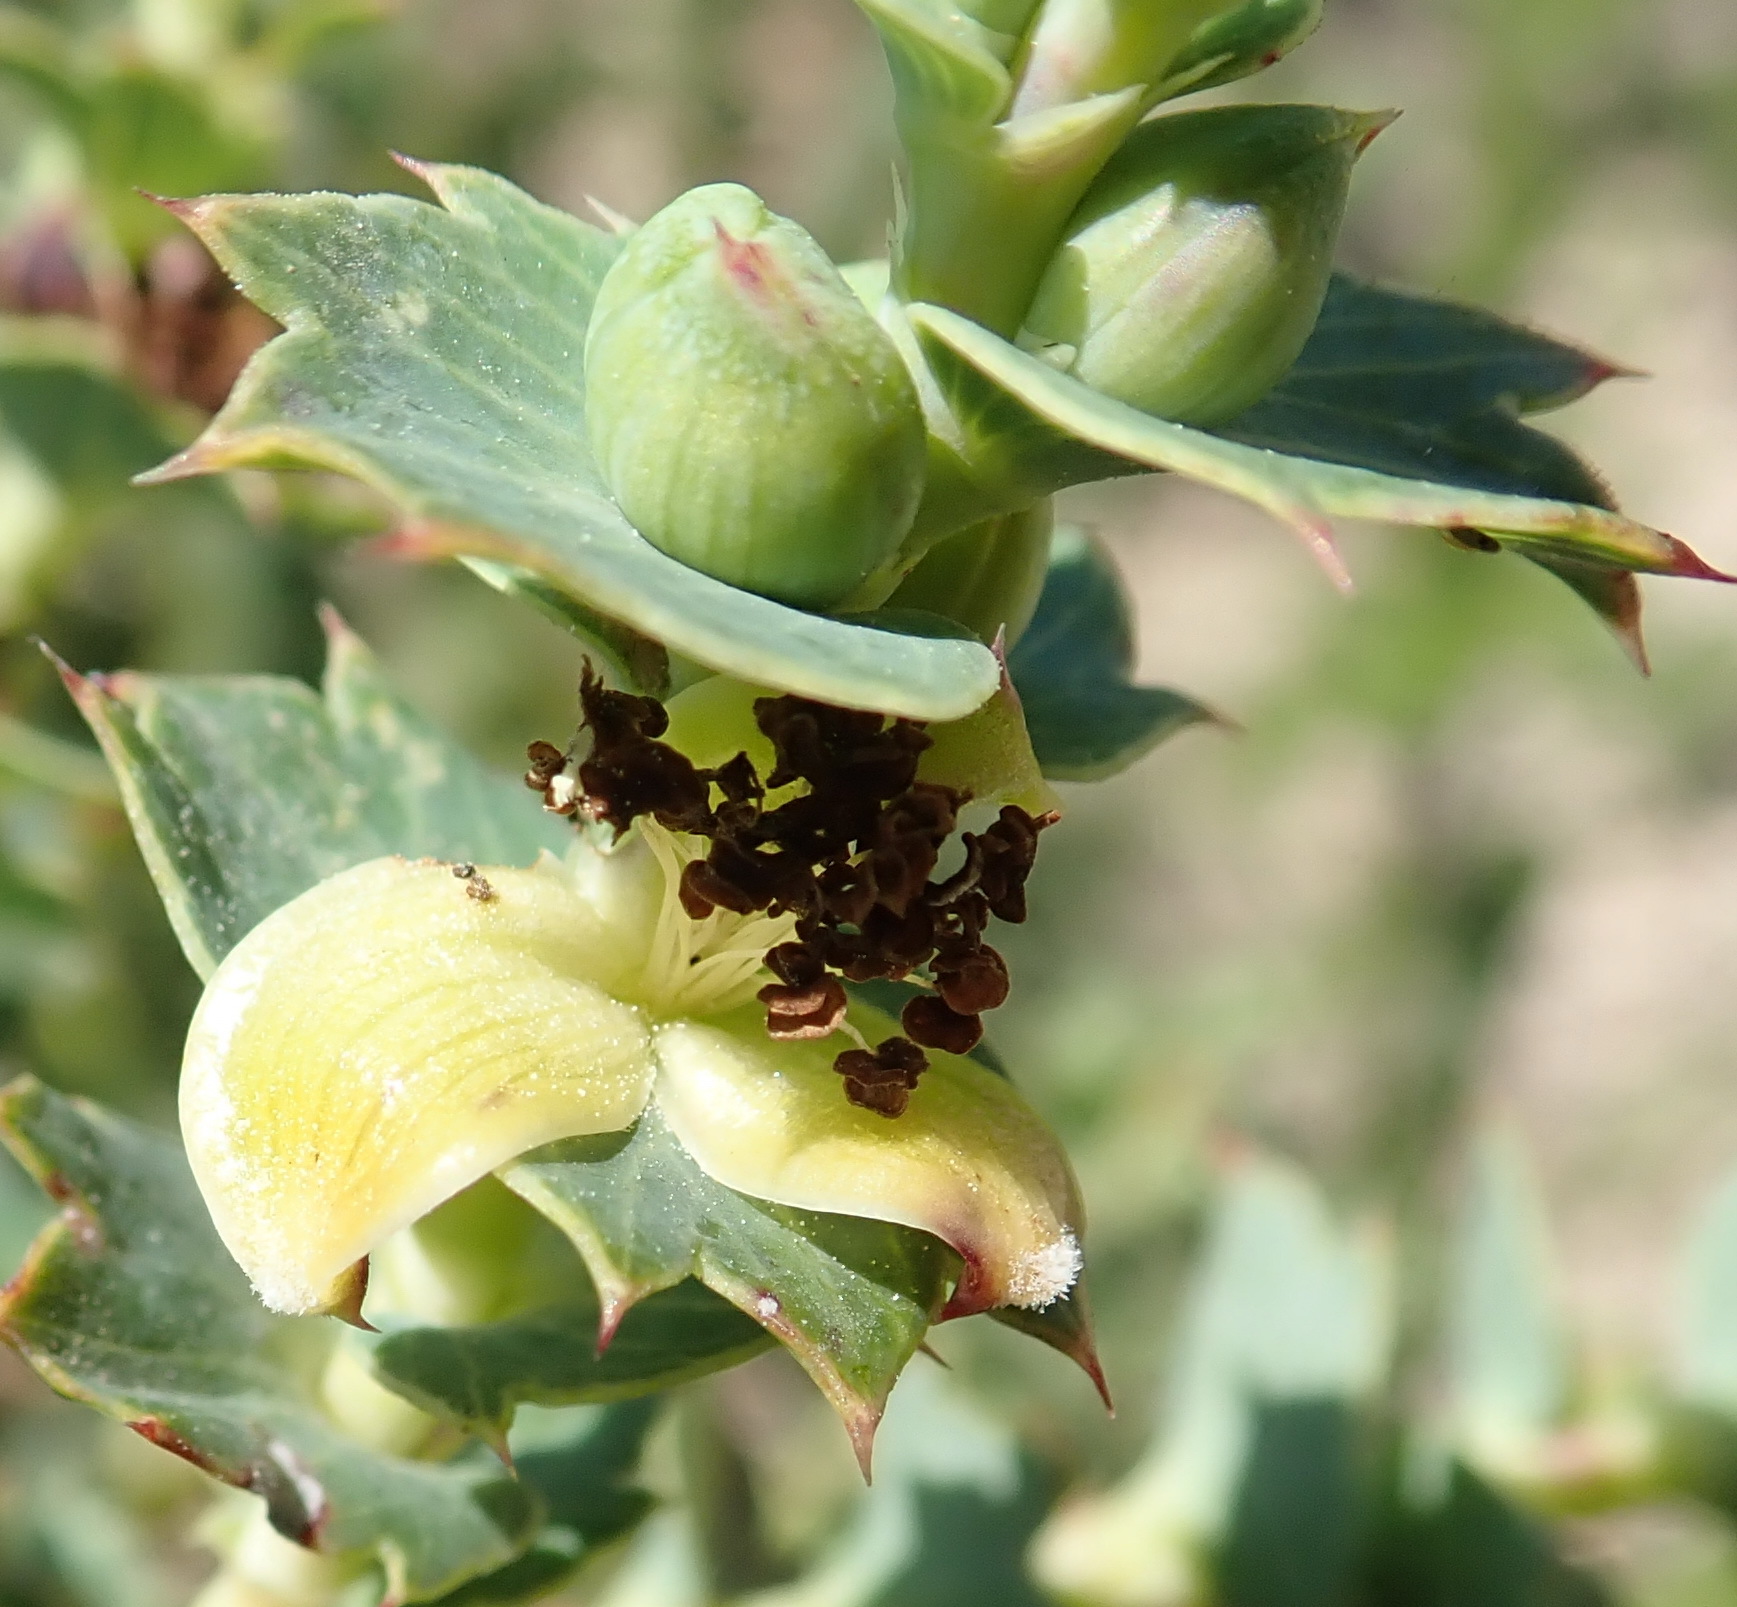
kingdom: Plantae
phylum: Tracheophyta
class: Magnoliopsida
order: Rosales
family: Rosaceae
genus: Cliffortia
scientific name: Cliffortia ilicifolia
